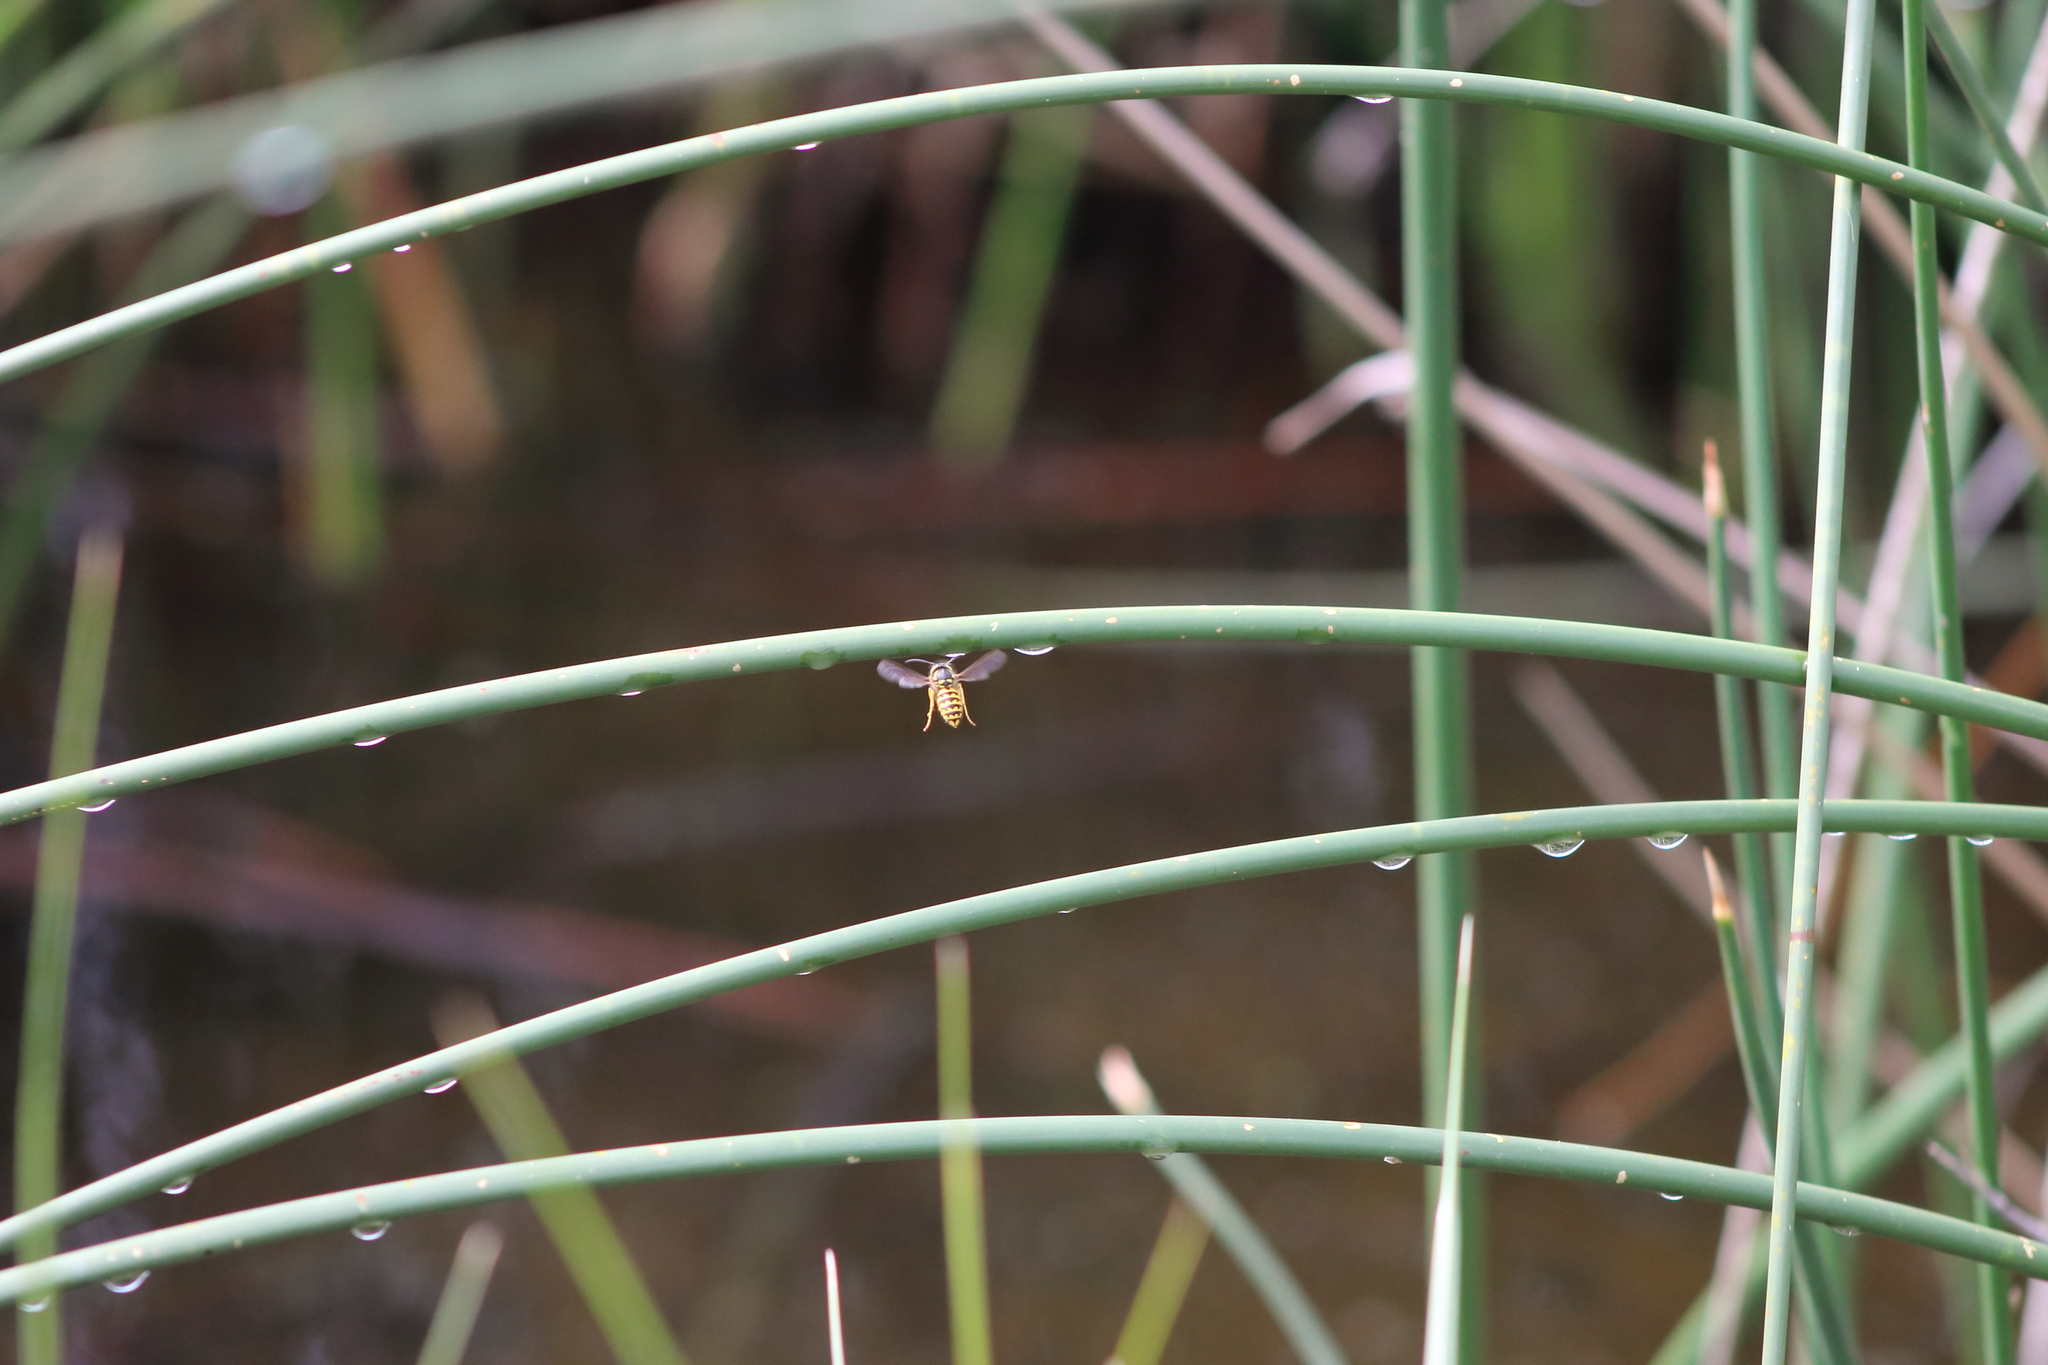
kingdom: Animalia
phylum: Arthropoda
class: Insecta
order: Hymenoptera
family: Vespidae
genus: Vespula
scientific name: Vespula pensylvanica
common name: Western yellowjacket
